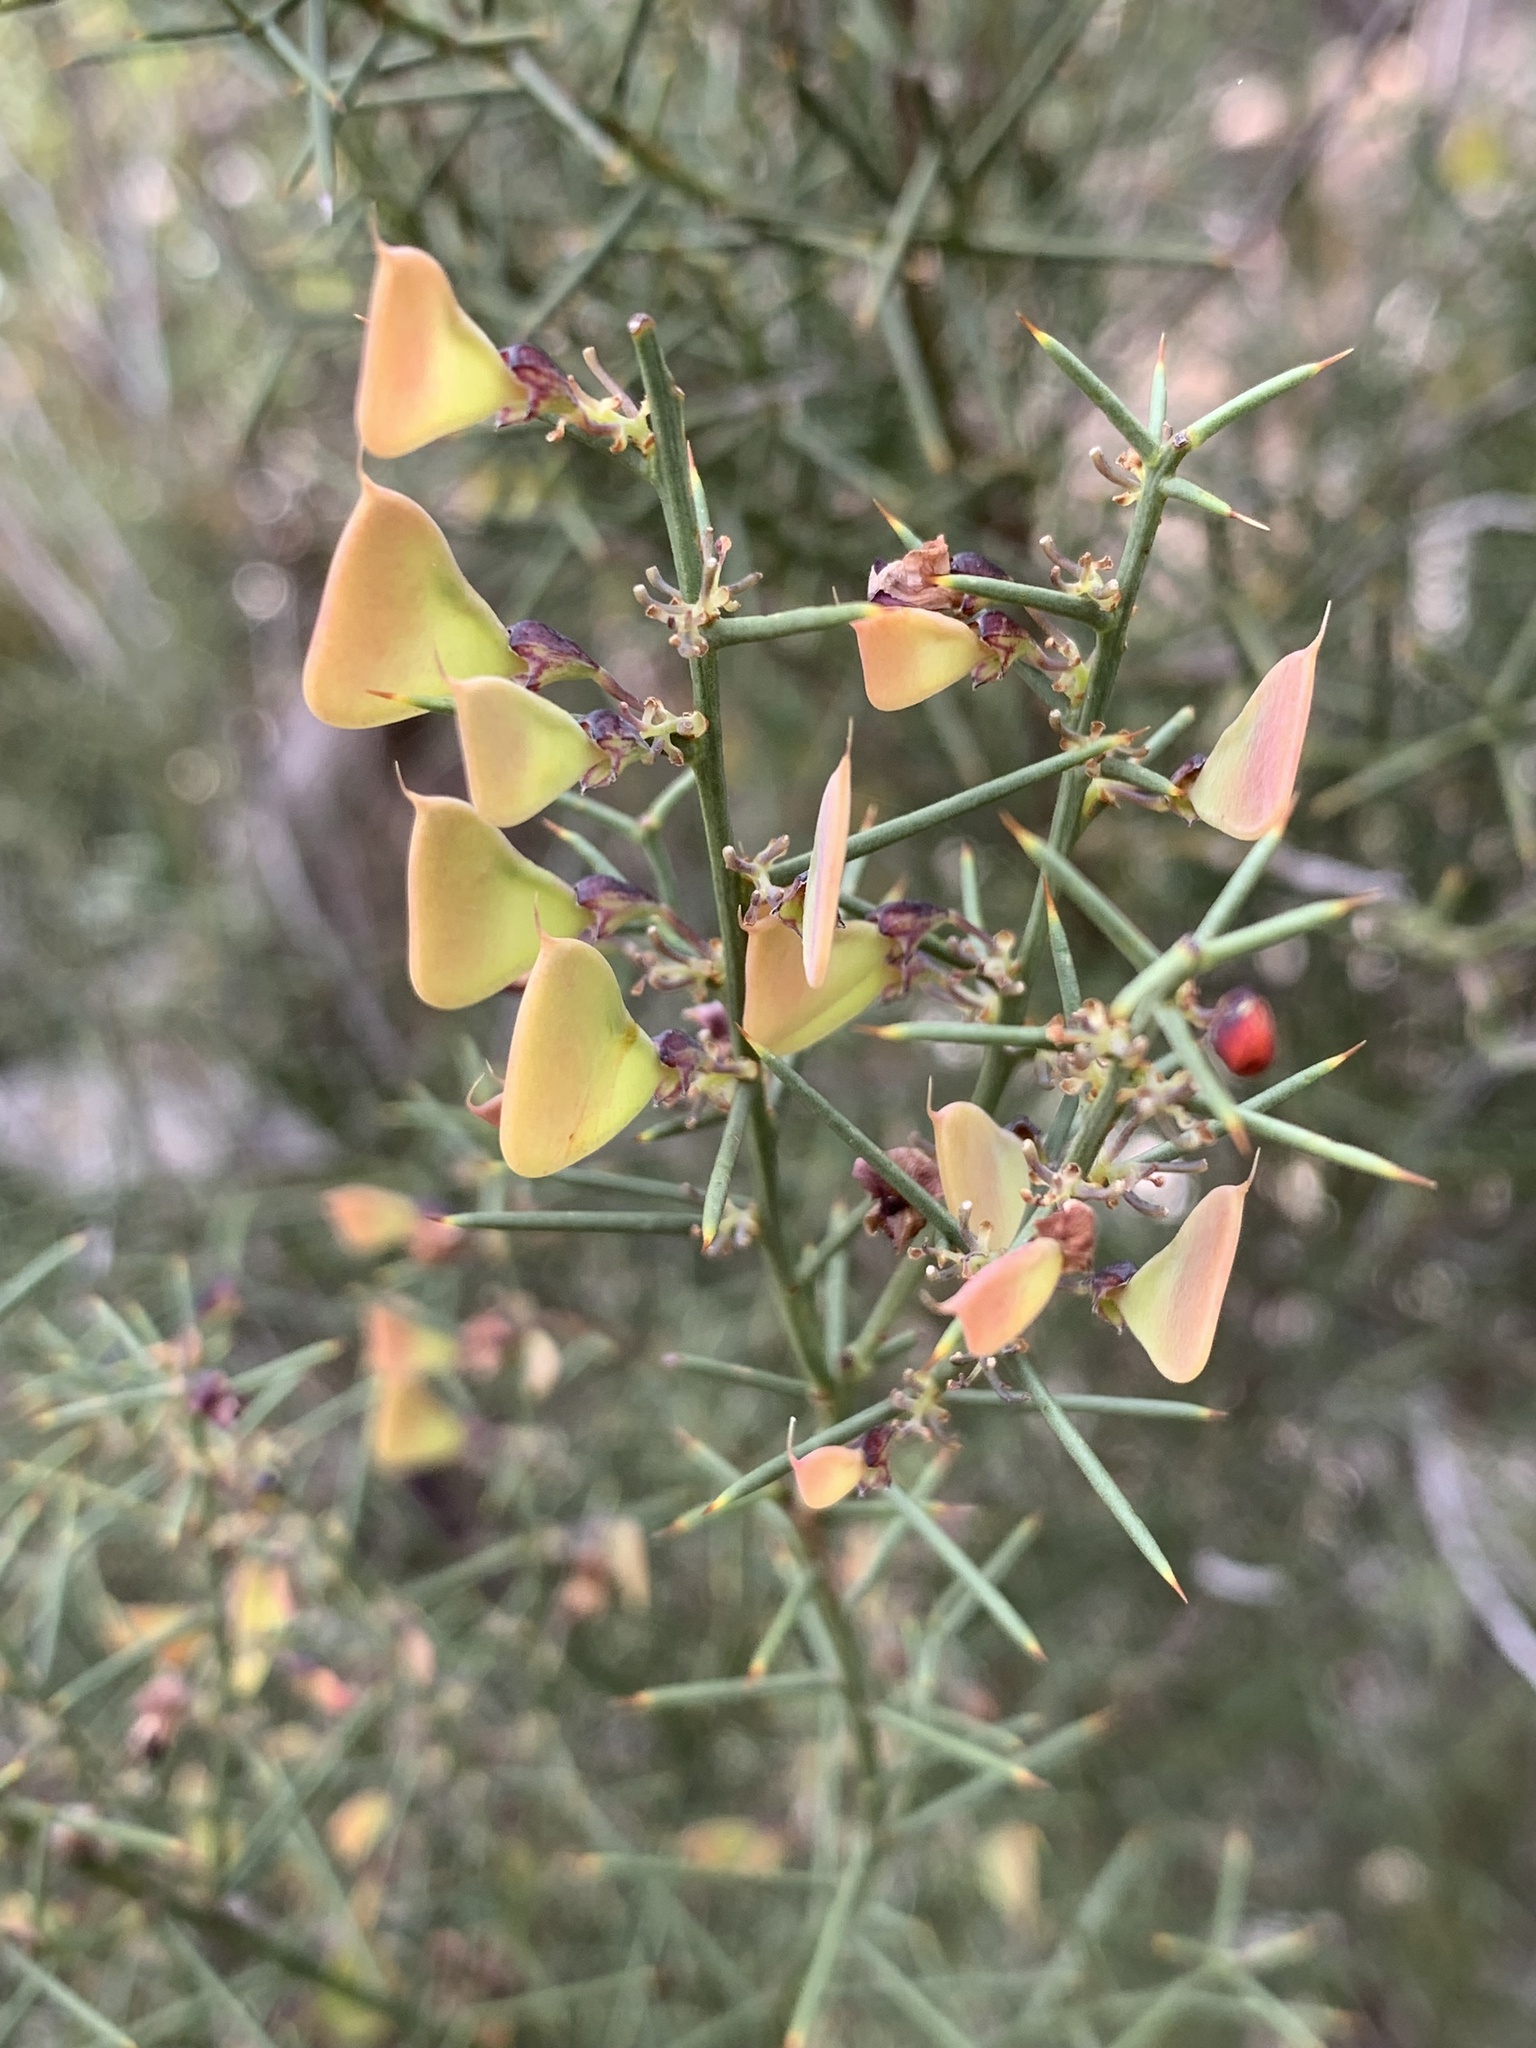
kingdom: Plantae
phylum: Tracheophyta
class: Magnoliopsida
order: Fabales
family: Fabaceae
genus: Daviesia
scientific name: Daviesia genistifolia
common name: Broom bitter-pea
